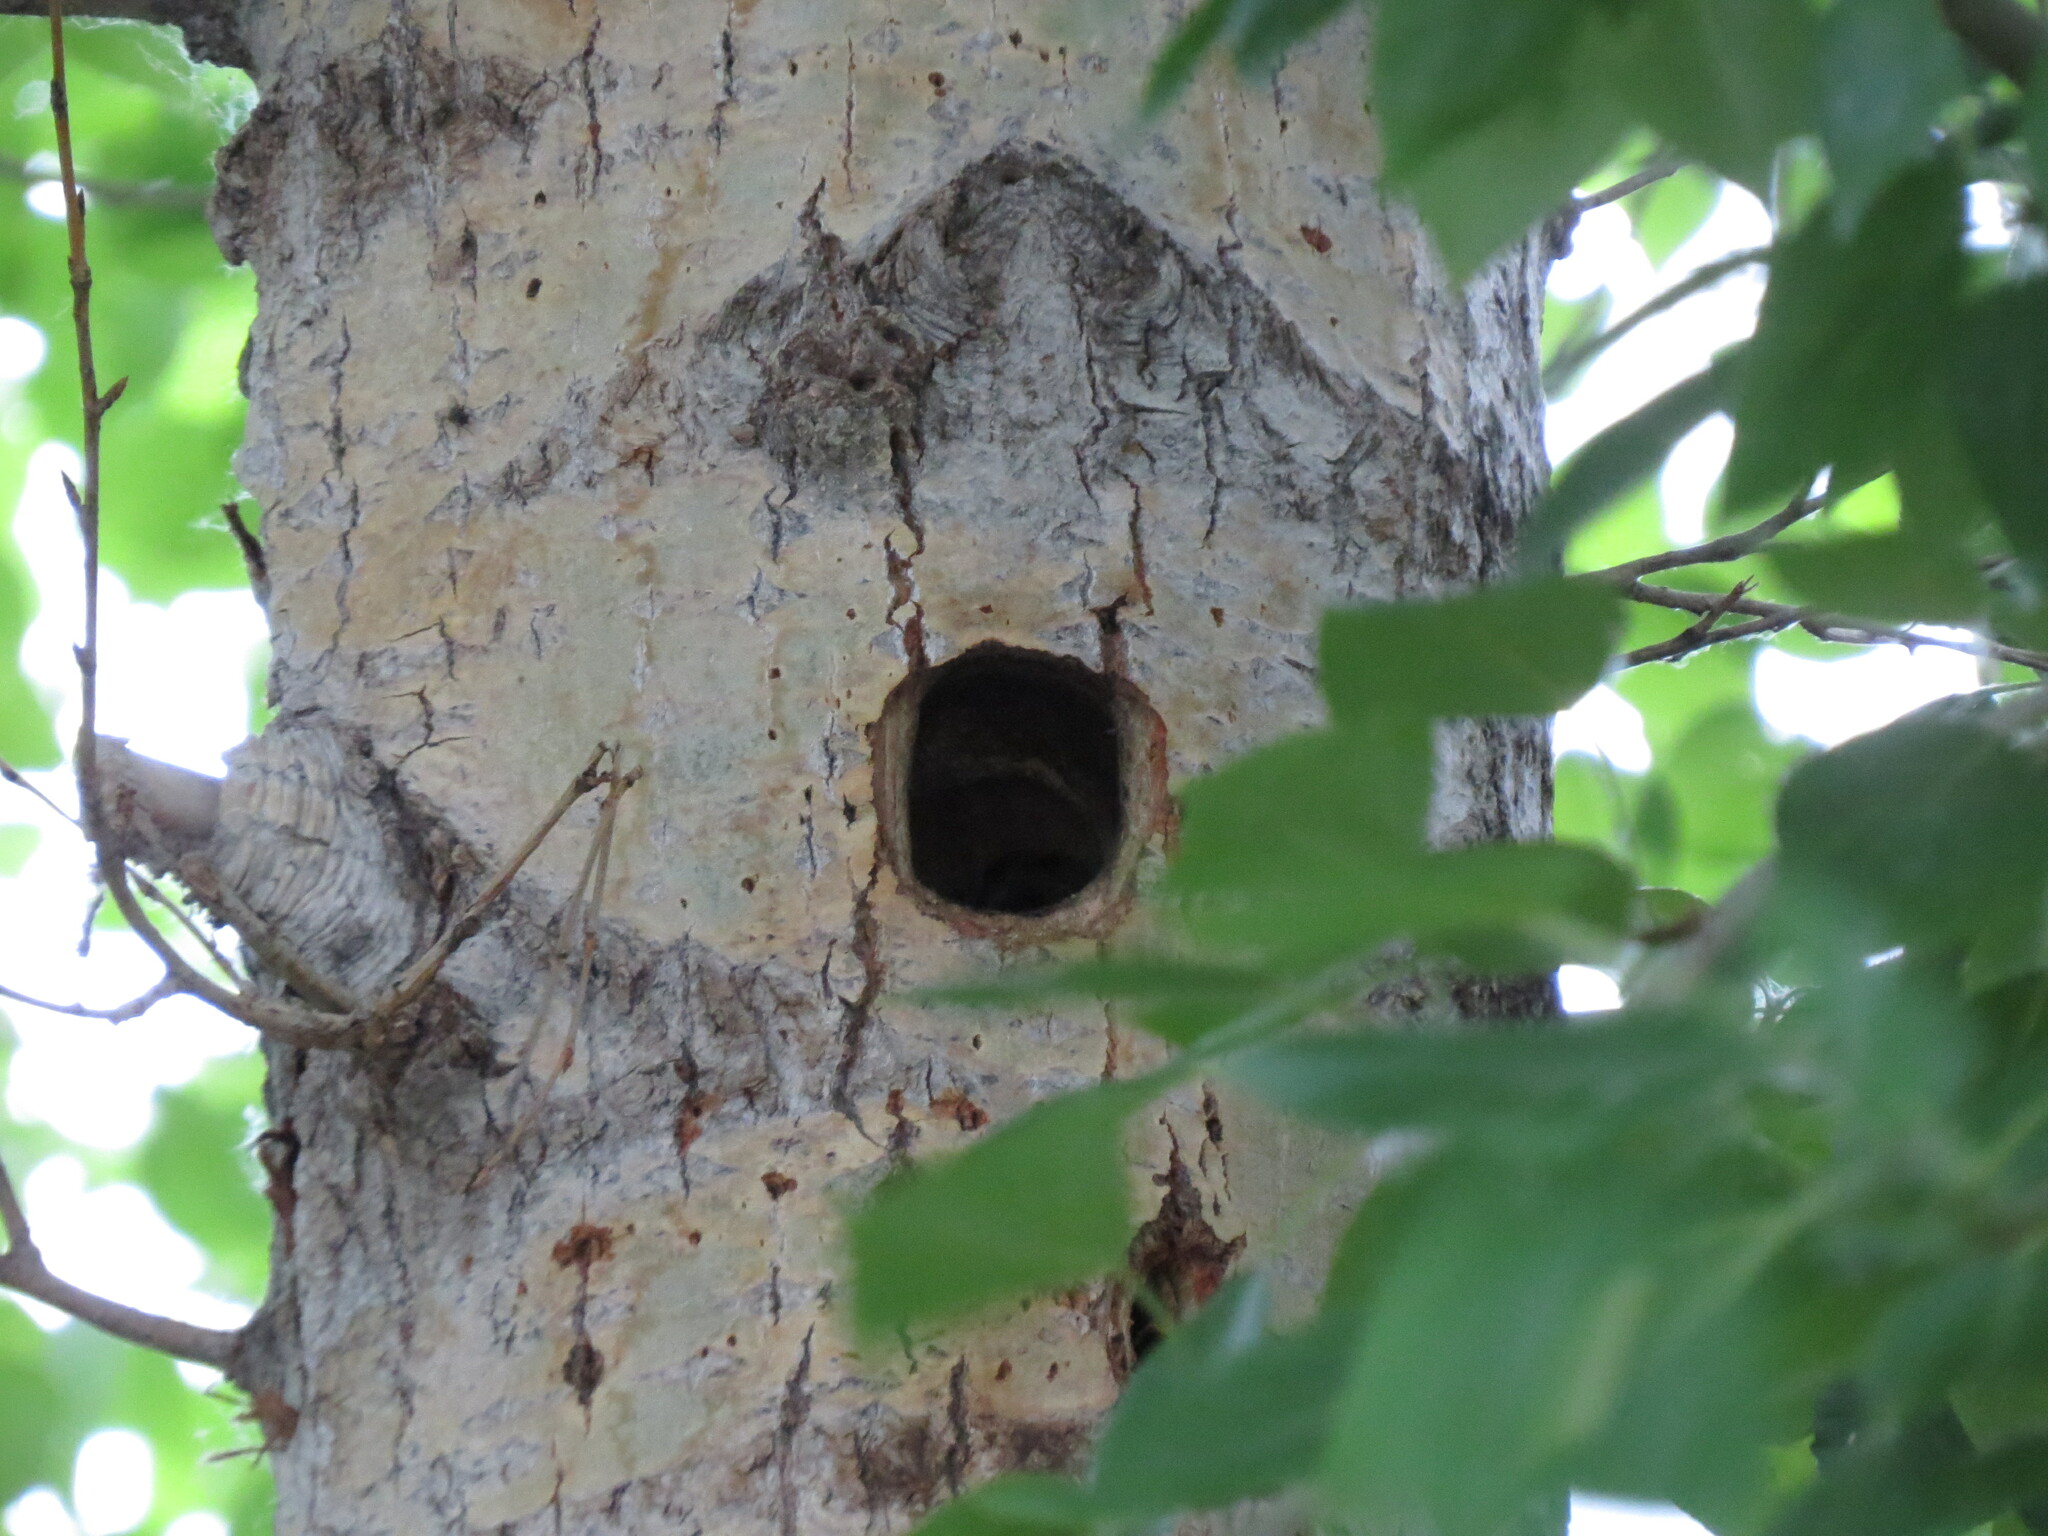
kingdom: Animalia
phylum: Chordata
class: Aves
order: Piciformes
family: Picidae
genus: Dendrocopos
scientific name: Dendrocopos major
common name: Great spotted woodpecker
